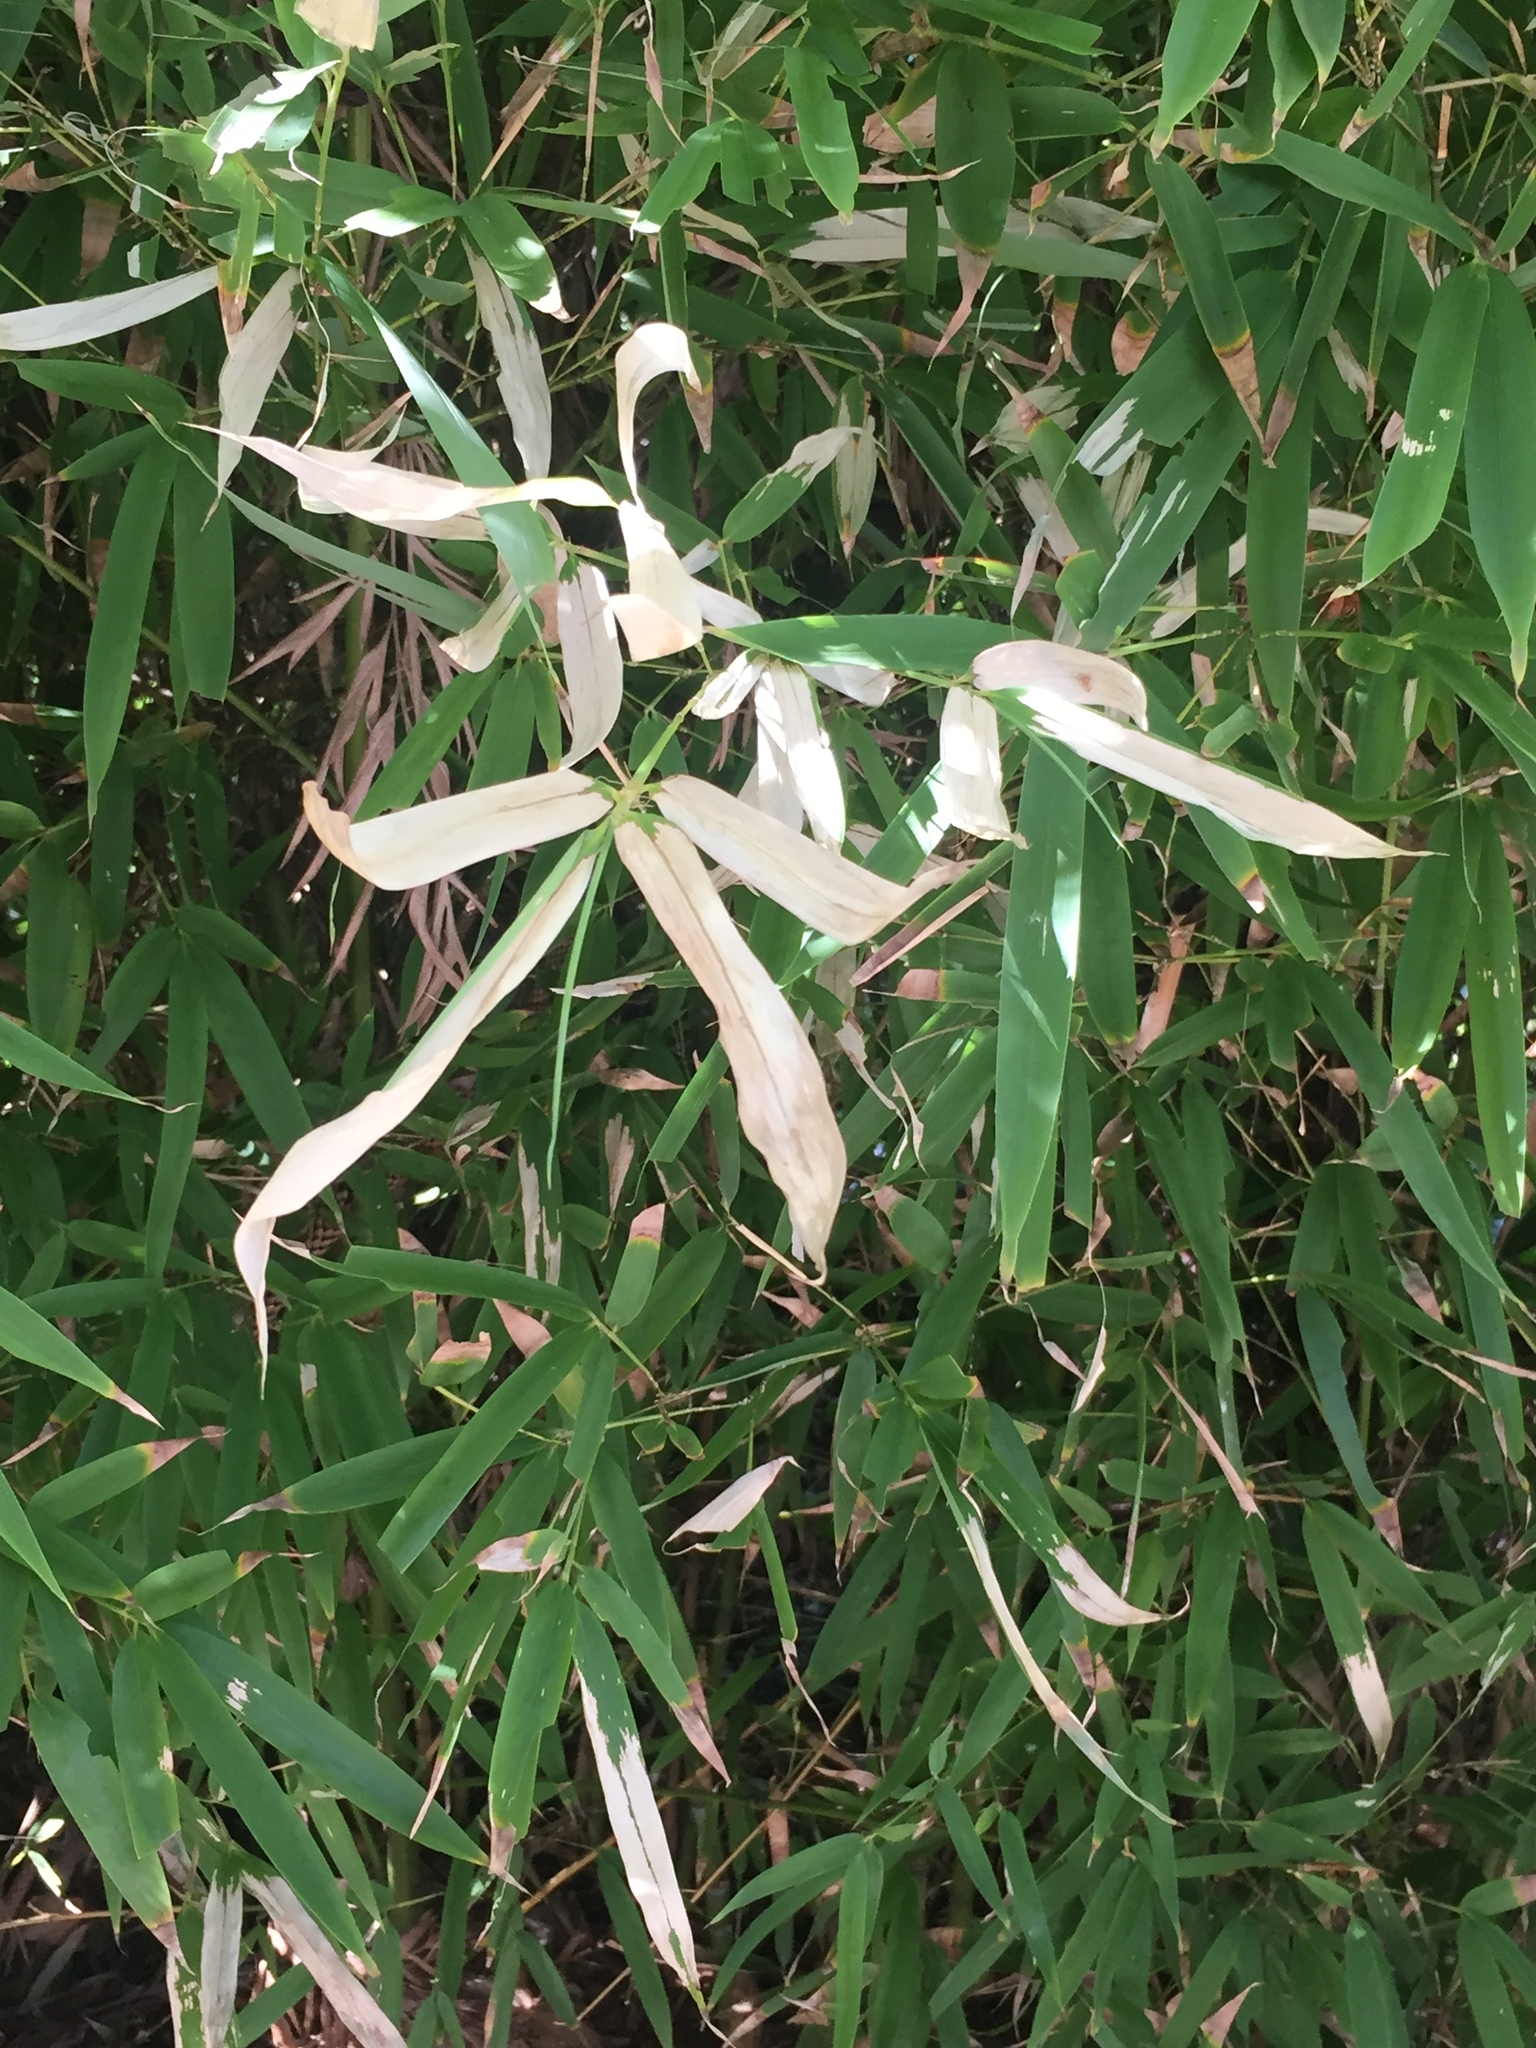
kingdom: Animalia
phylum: Arthropoda
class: Insecta
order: Lepidoptera
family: Zygaenidae
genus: Artona
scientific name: Artona martini
